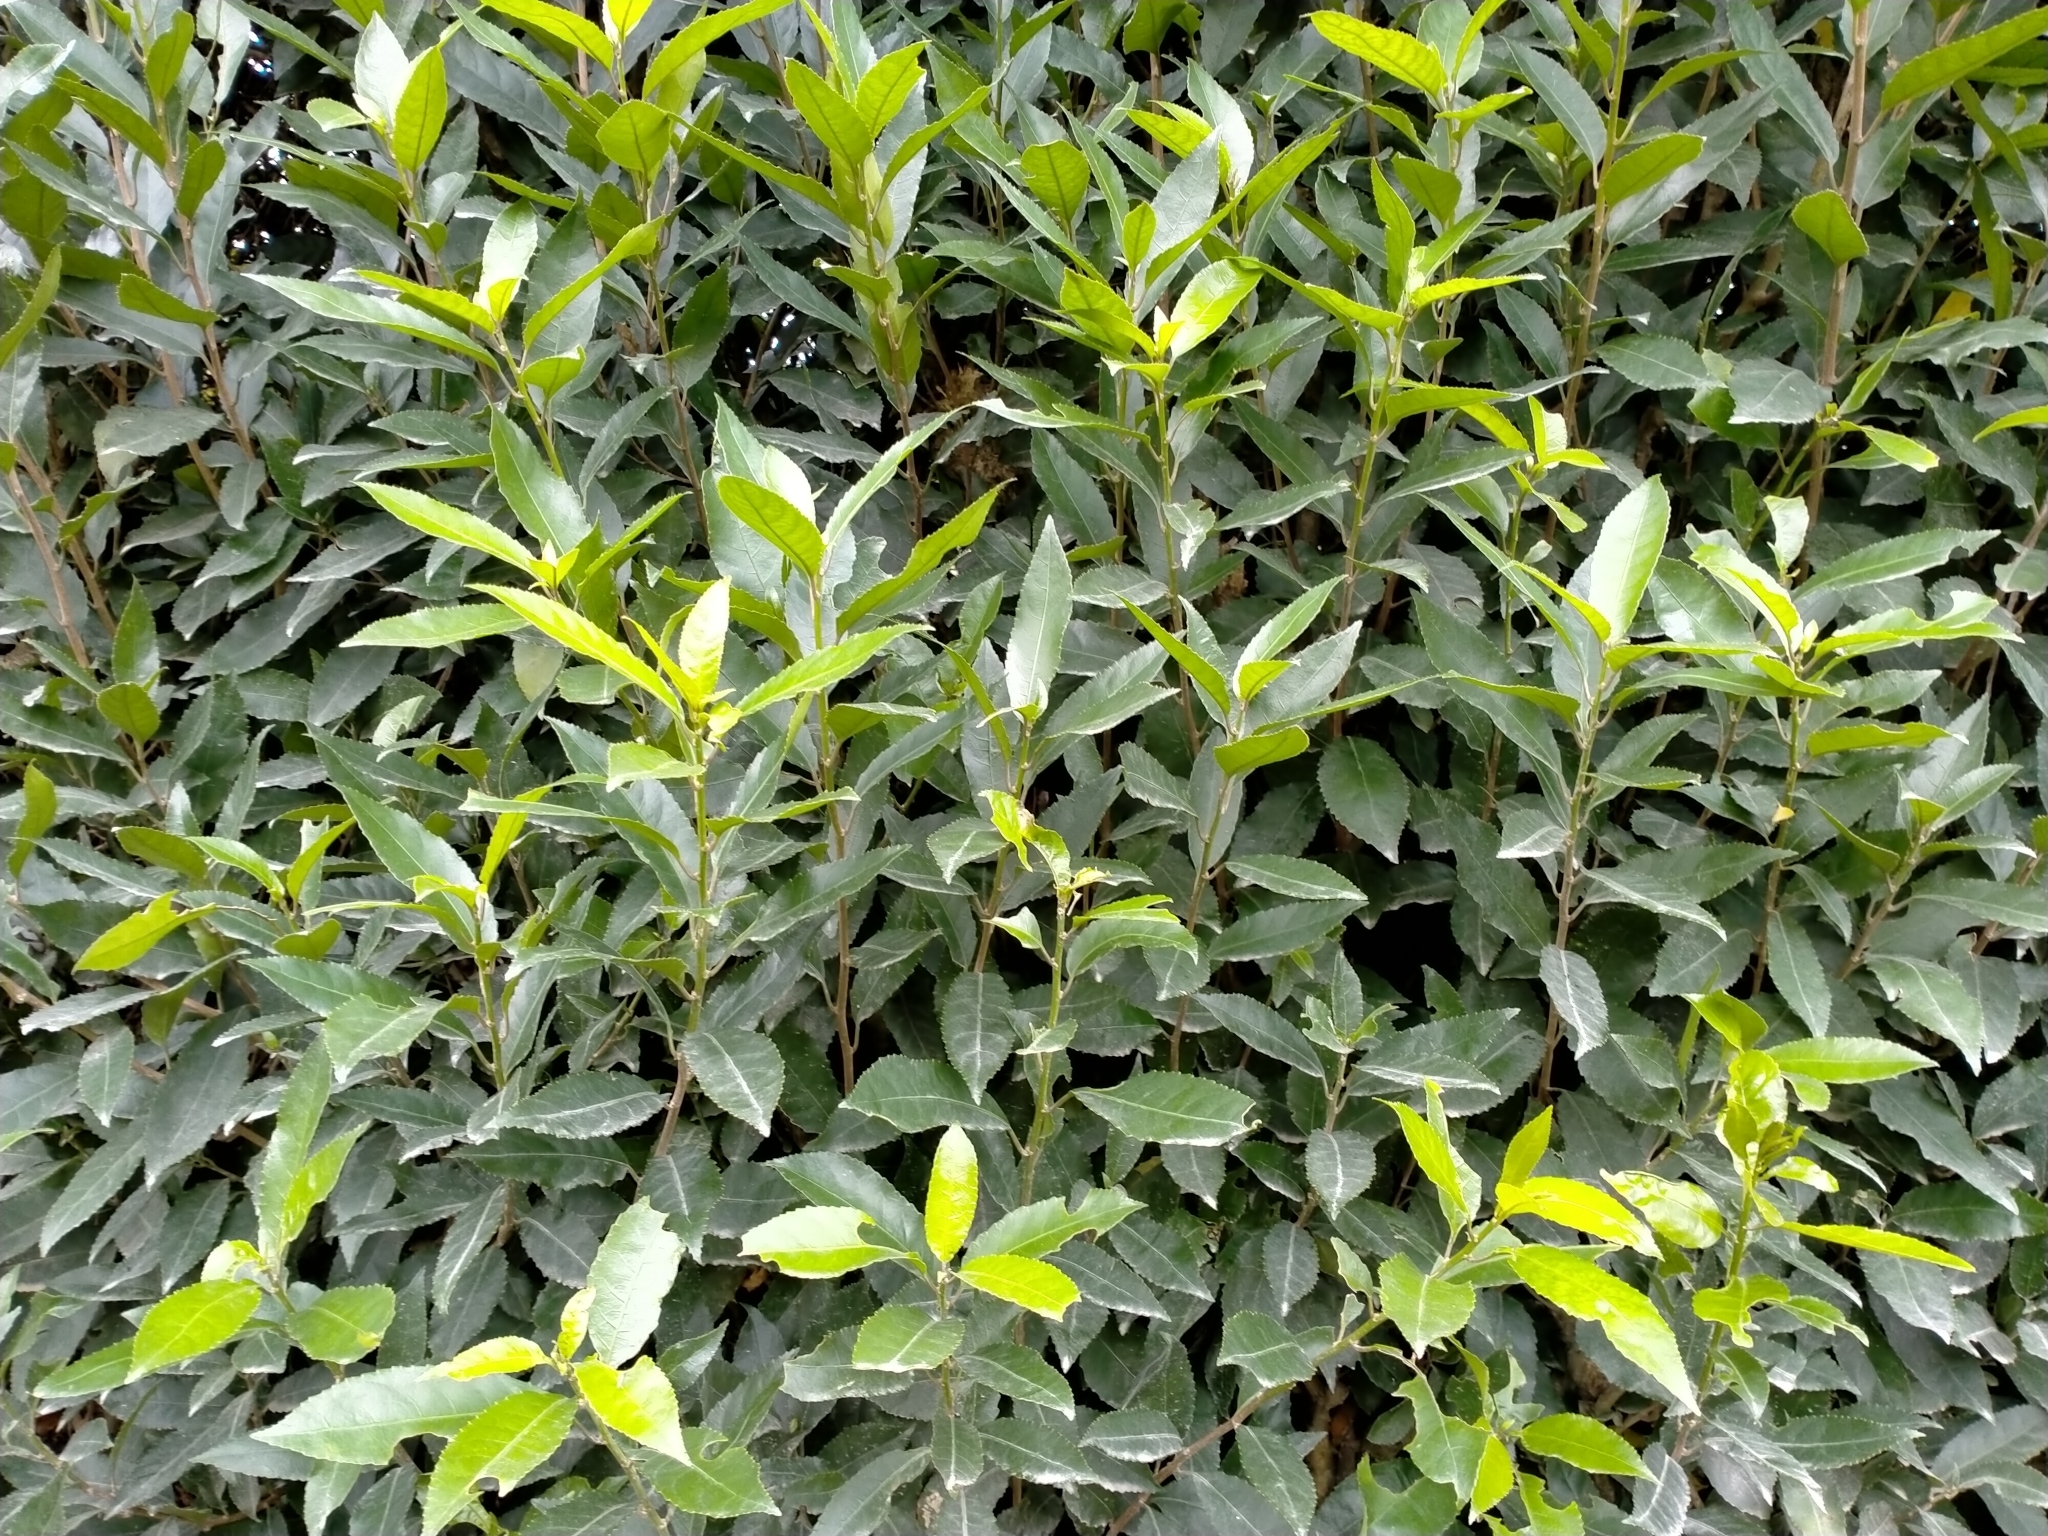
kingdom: Plantae
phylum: Tracheophyta
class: Magnoliopsida
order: Malpighiales
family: Violaceae
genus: Melicytus
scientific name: Melicytus ramiflorus
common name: Mahoe
